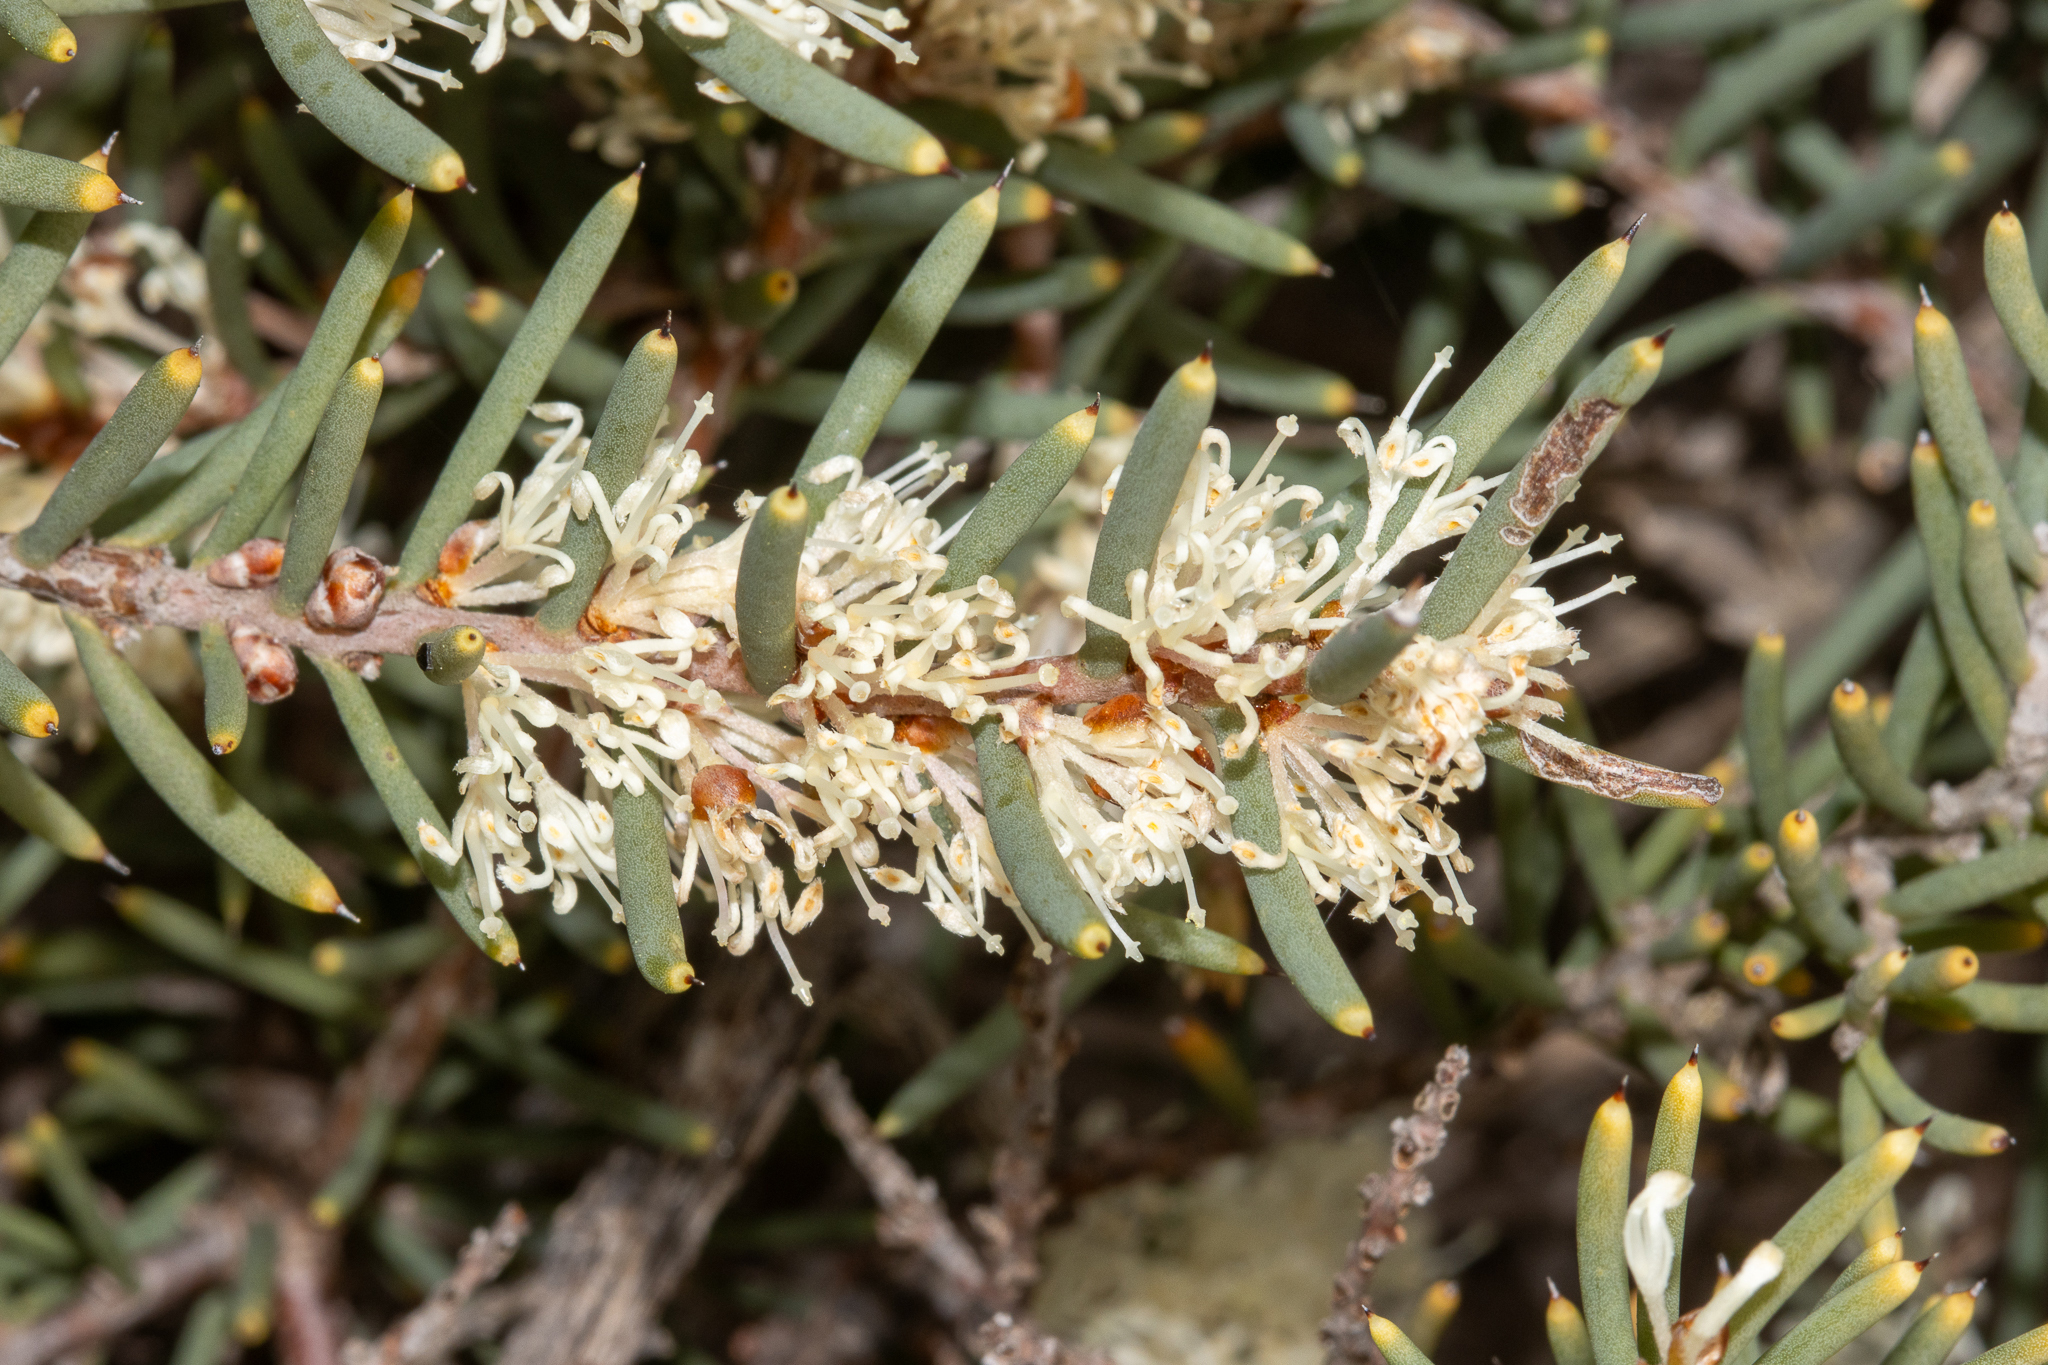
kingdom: Plantae
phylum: Tracheophyta
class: Magnoliopsida
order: Proteales
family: Proteaceae
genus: Hakea
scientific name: Hakea rugosa
